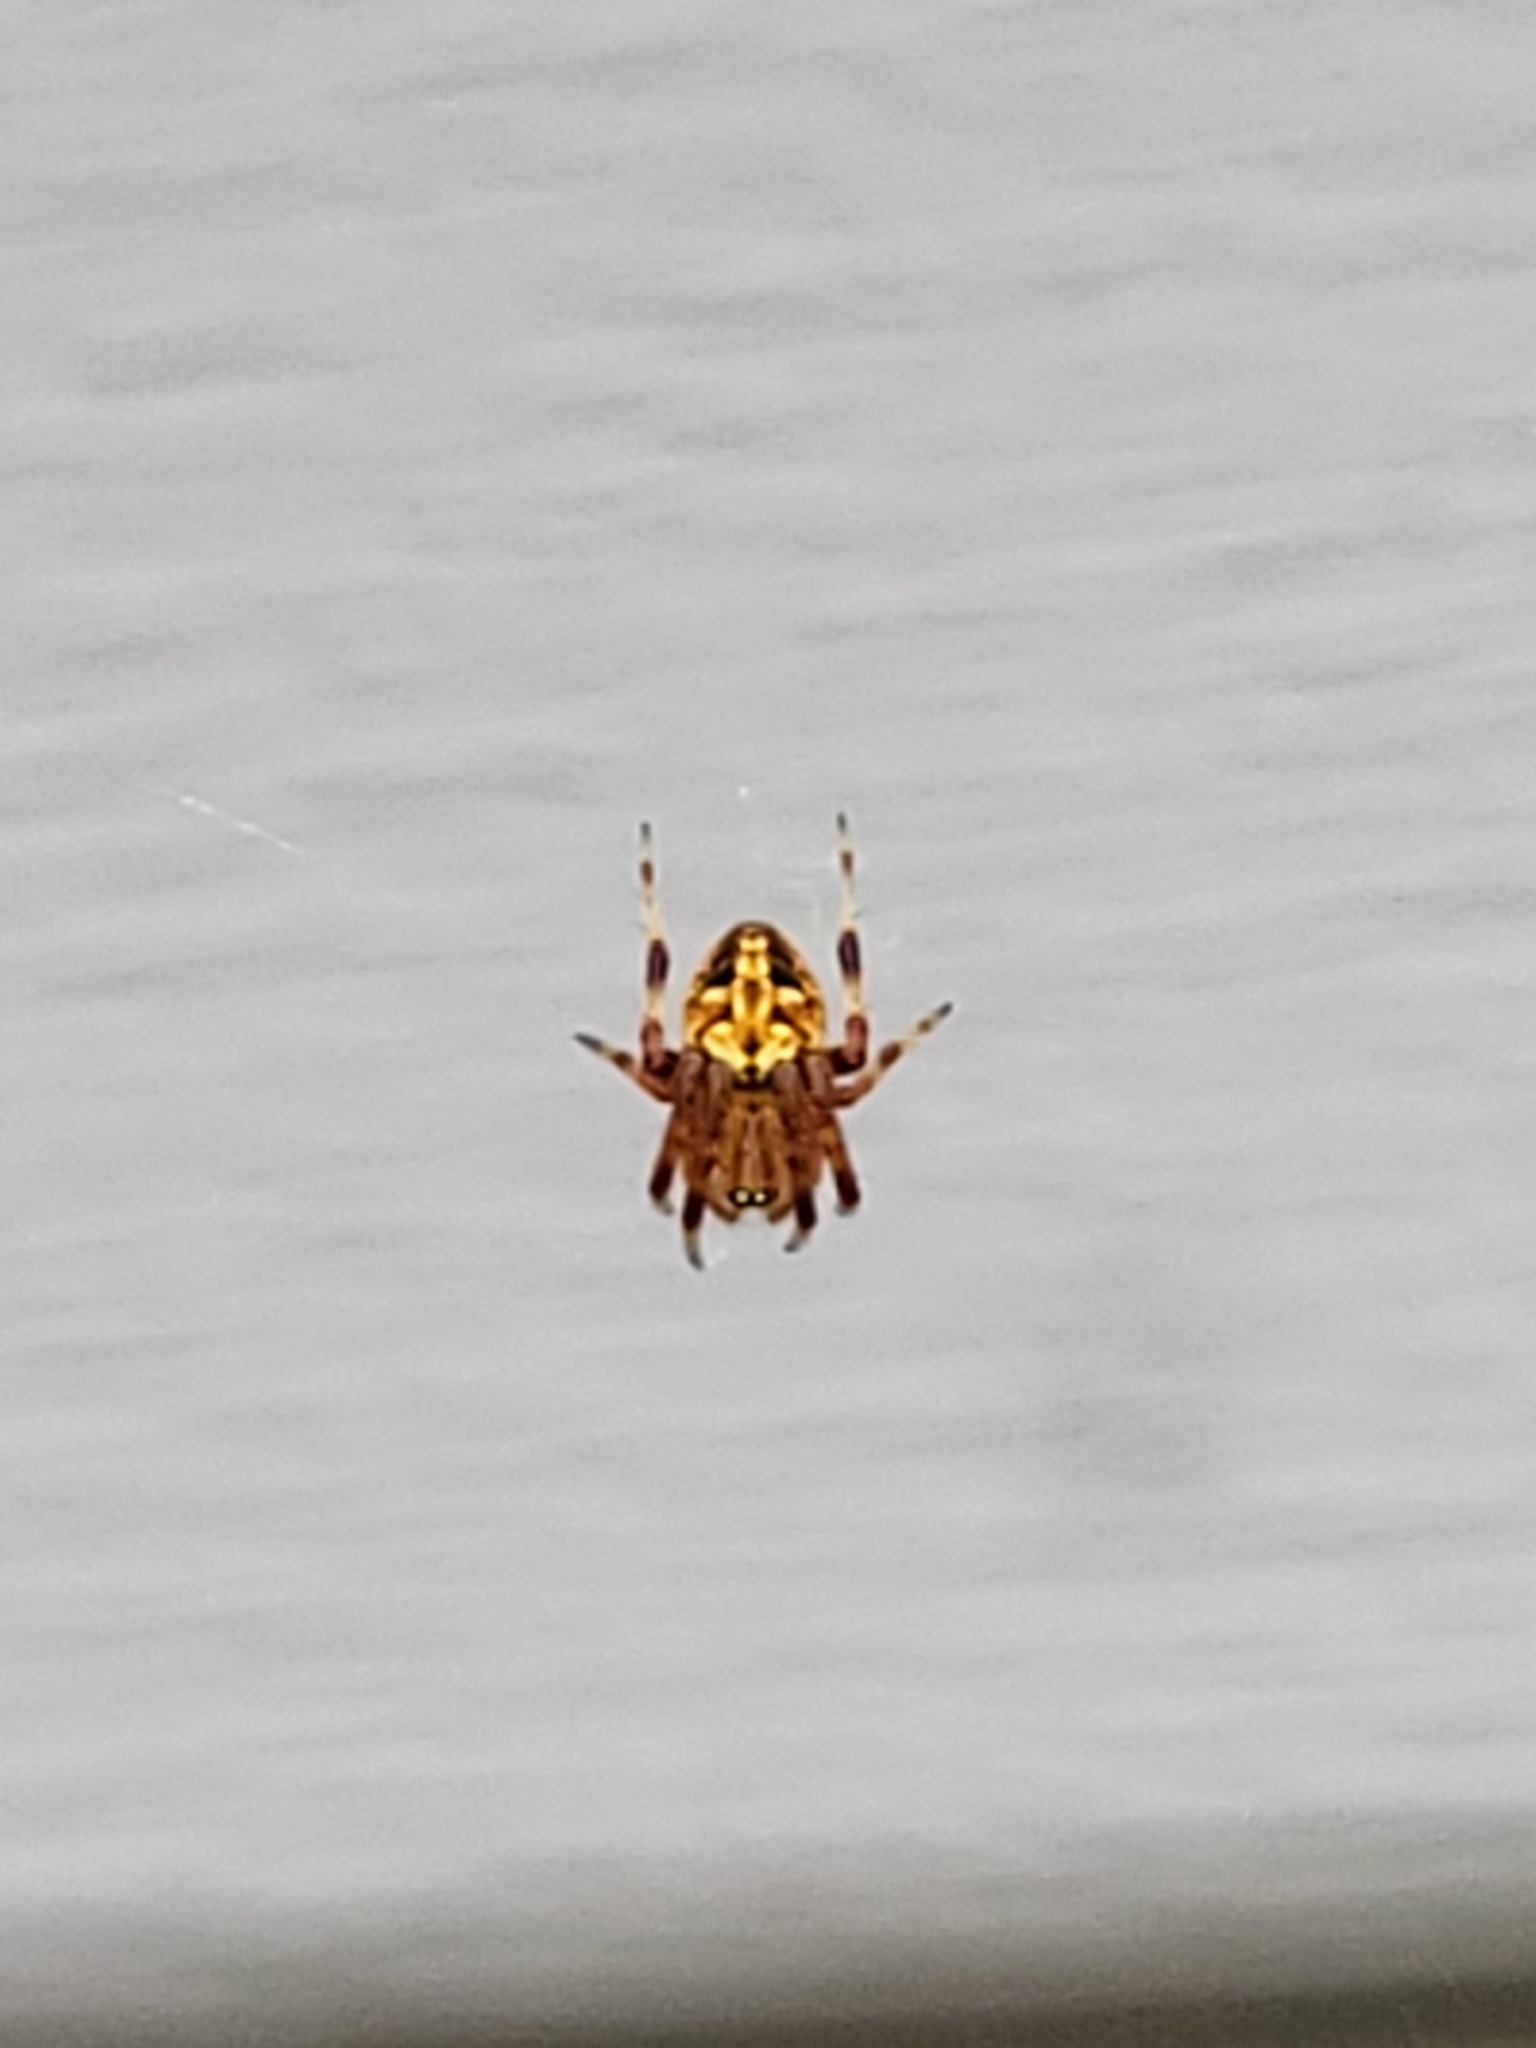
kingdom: Animalia
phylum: Arthropoda
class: Arachnida
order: Araneae
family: Araneidae
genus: Neoscona
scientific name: Neoscona arabesca
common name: Orb weavers
